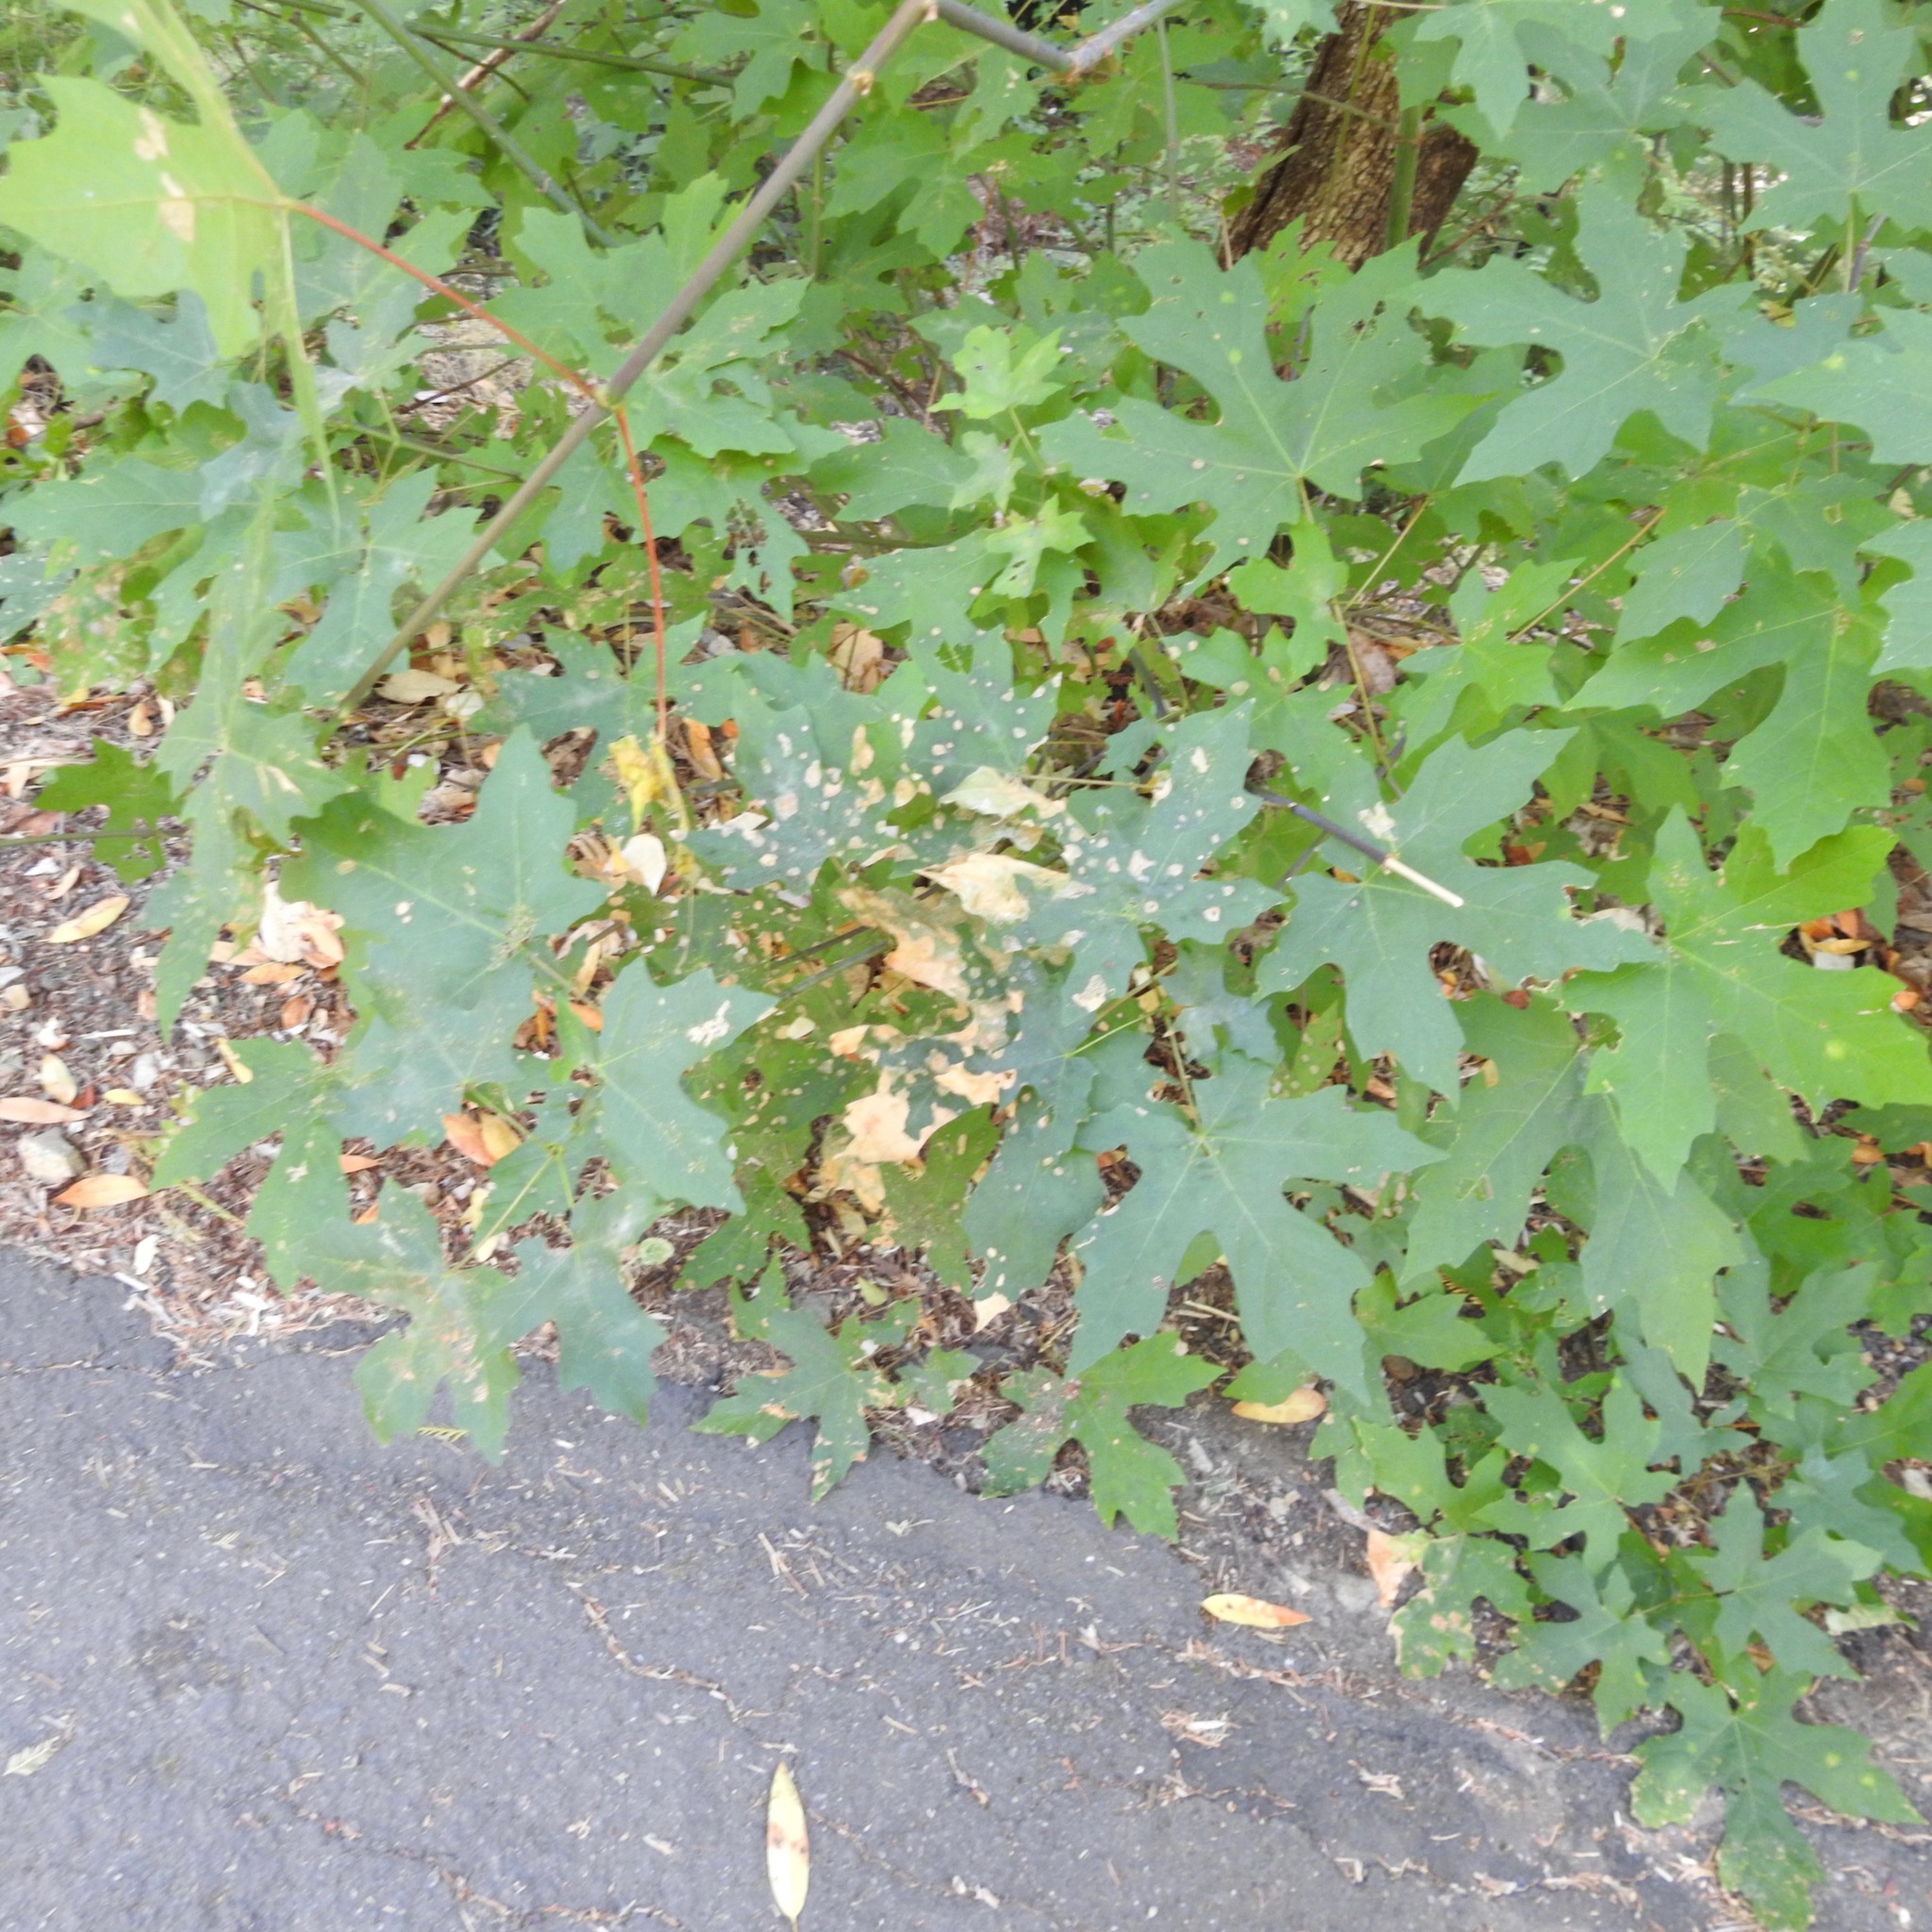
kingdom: Plantae
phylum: Tracheophyta
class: Magnoliopsida
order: Sapindales
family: Sapindaceae
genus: Acer
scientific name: Acer macrophyllum
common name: Oregon maple
